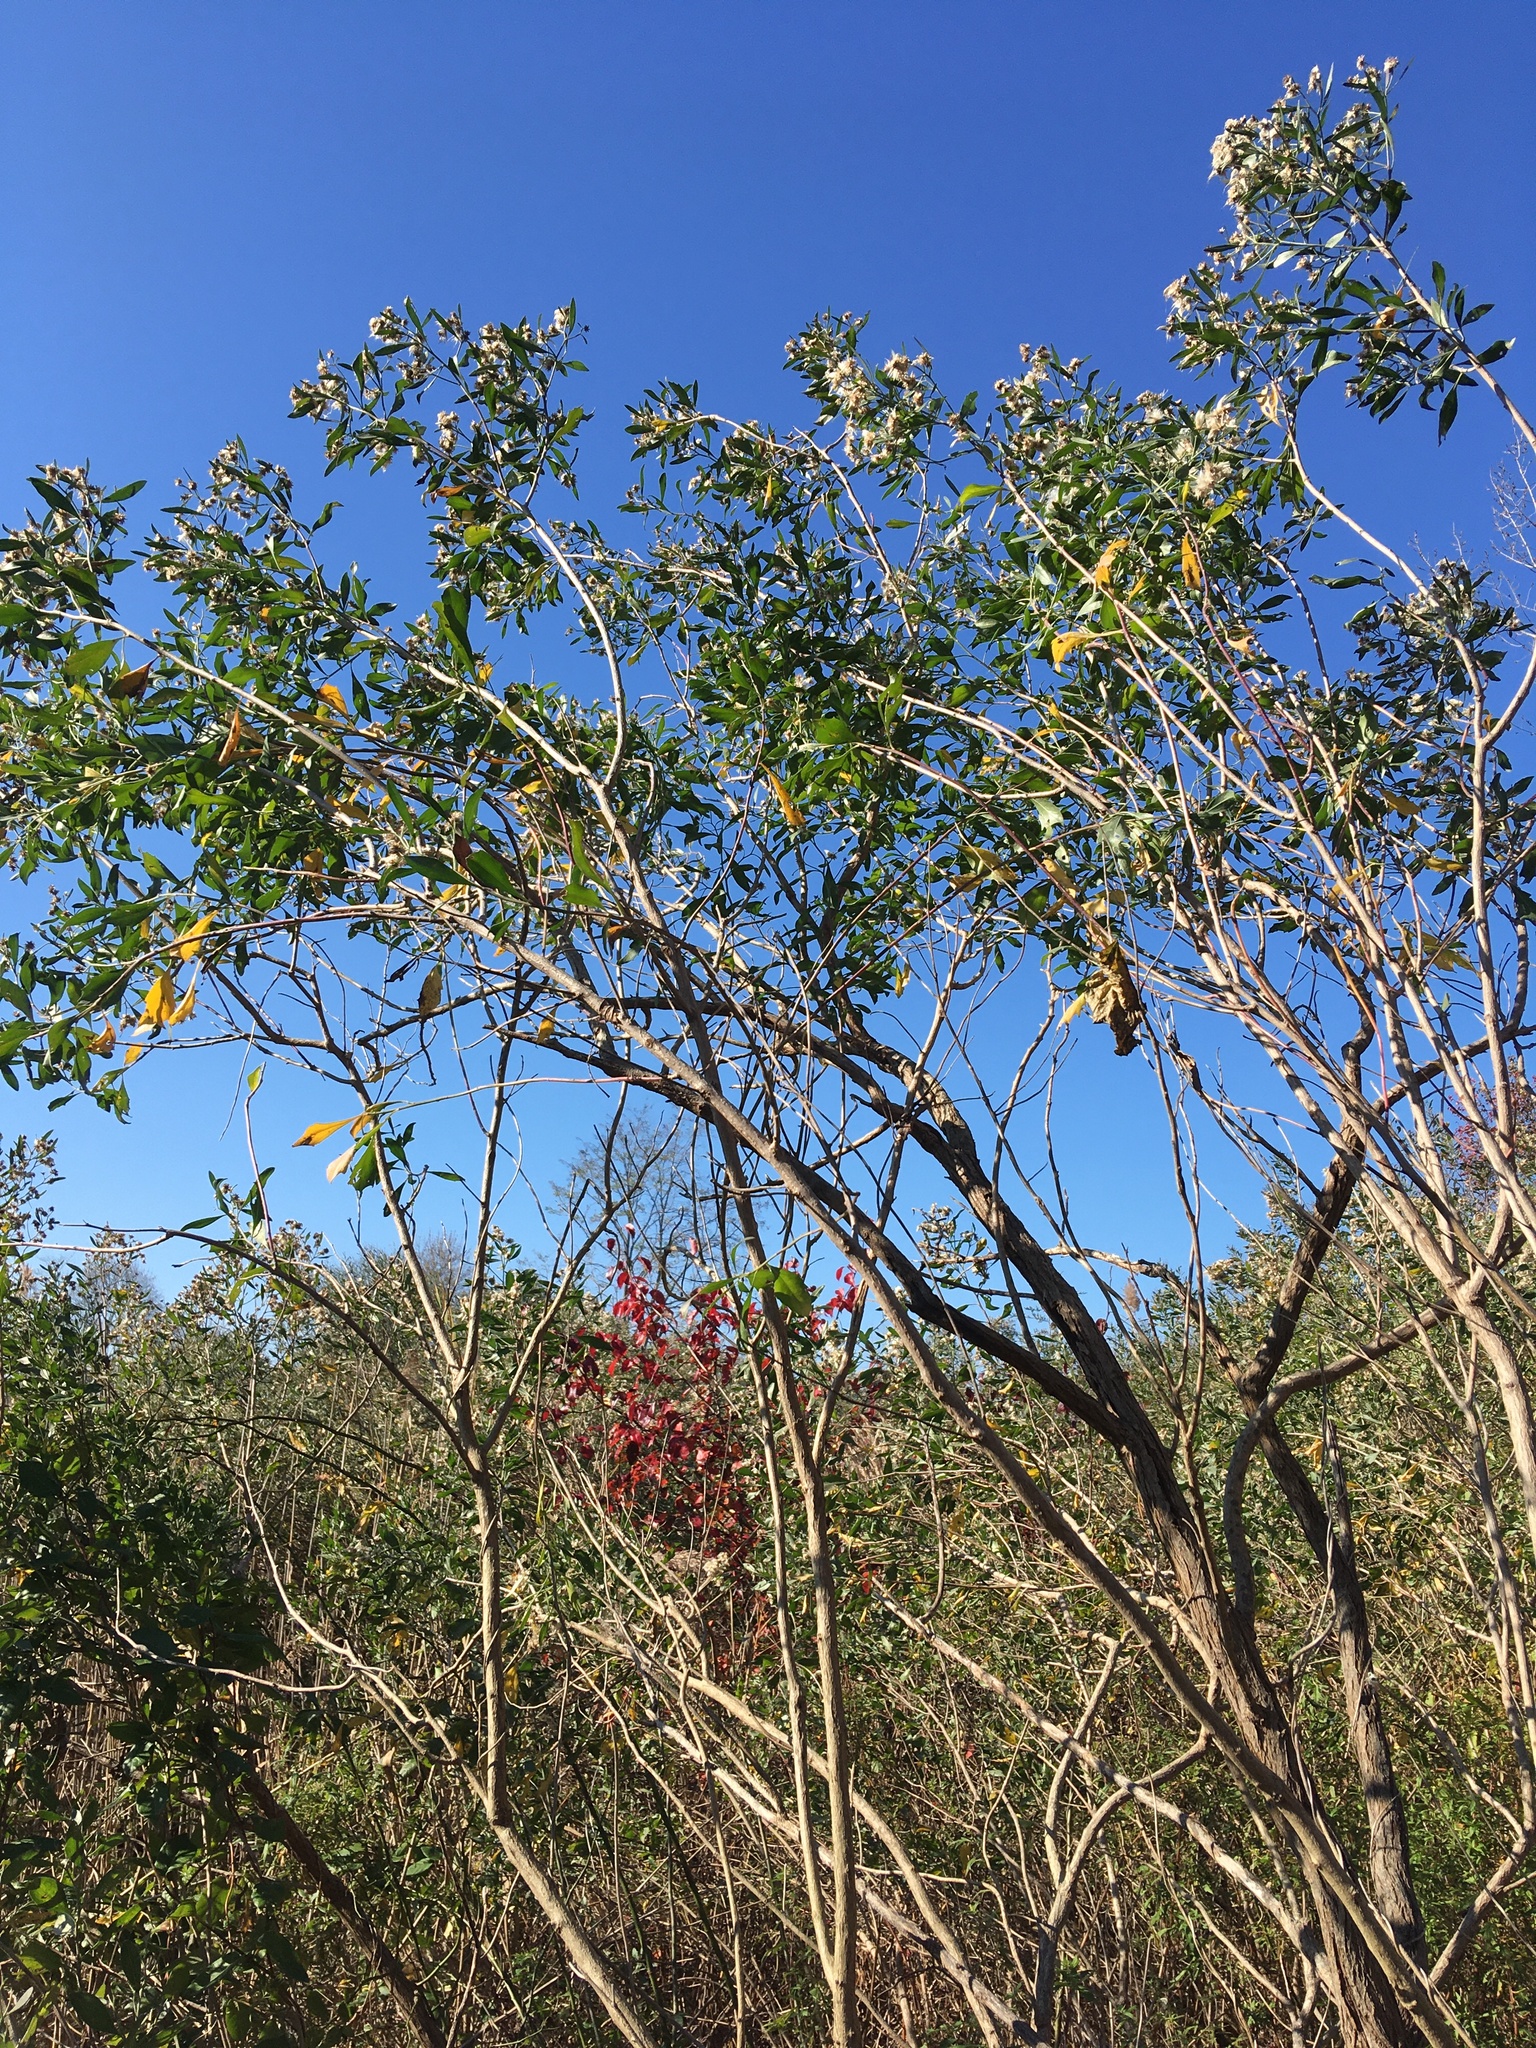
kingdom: Plantae
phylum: Tracheophyta
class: Magnoliopsida
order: Asterales
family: Asteraceae
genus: Baccharis
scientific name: Baccharis halimifolia
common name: Eastern baccharis
